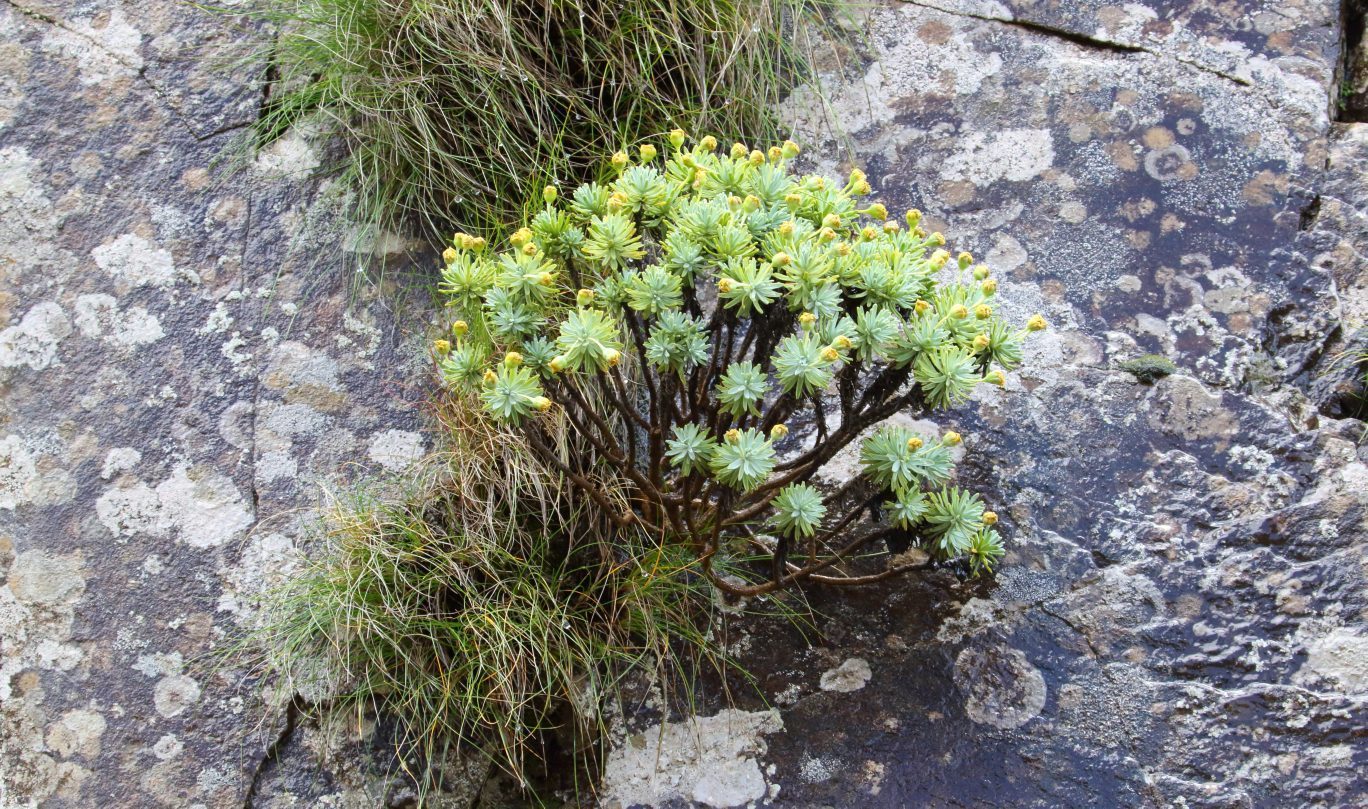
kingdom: Plantae
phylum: Tracheophyta
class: Magnoliopsida
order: Asterales
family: Asteraceae
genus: Euryops
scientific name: Euryops acraeus
